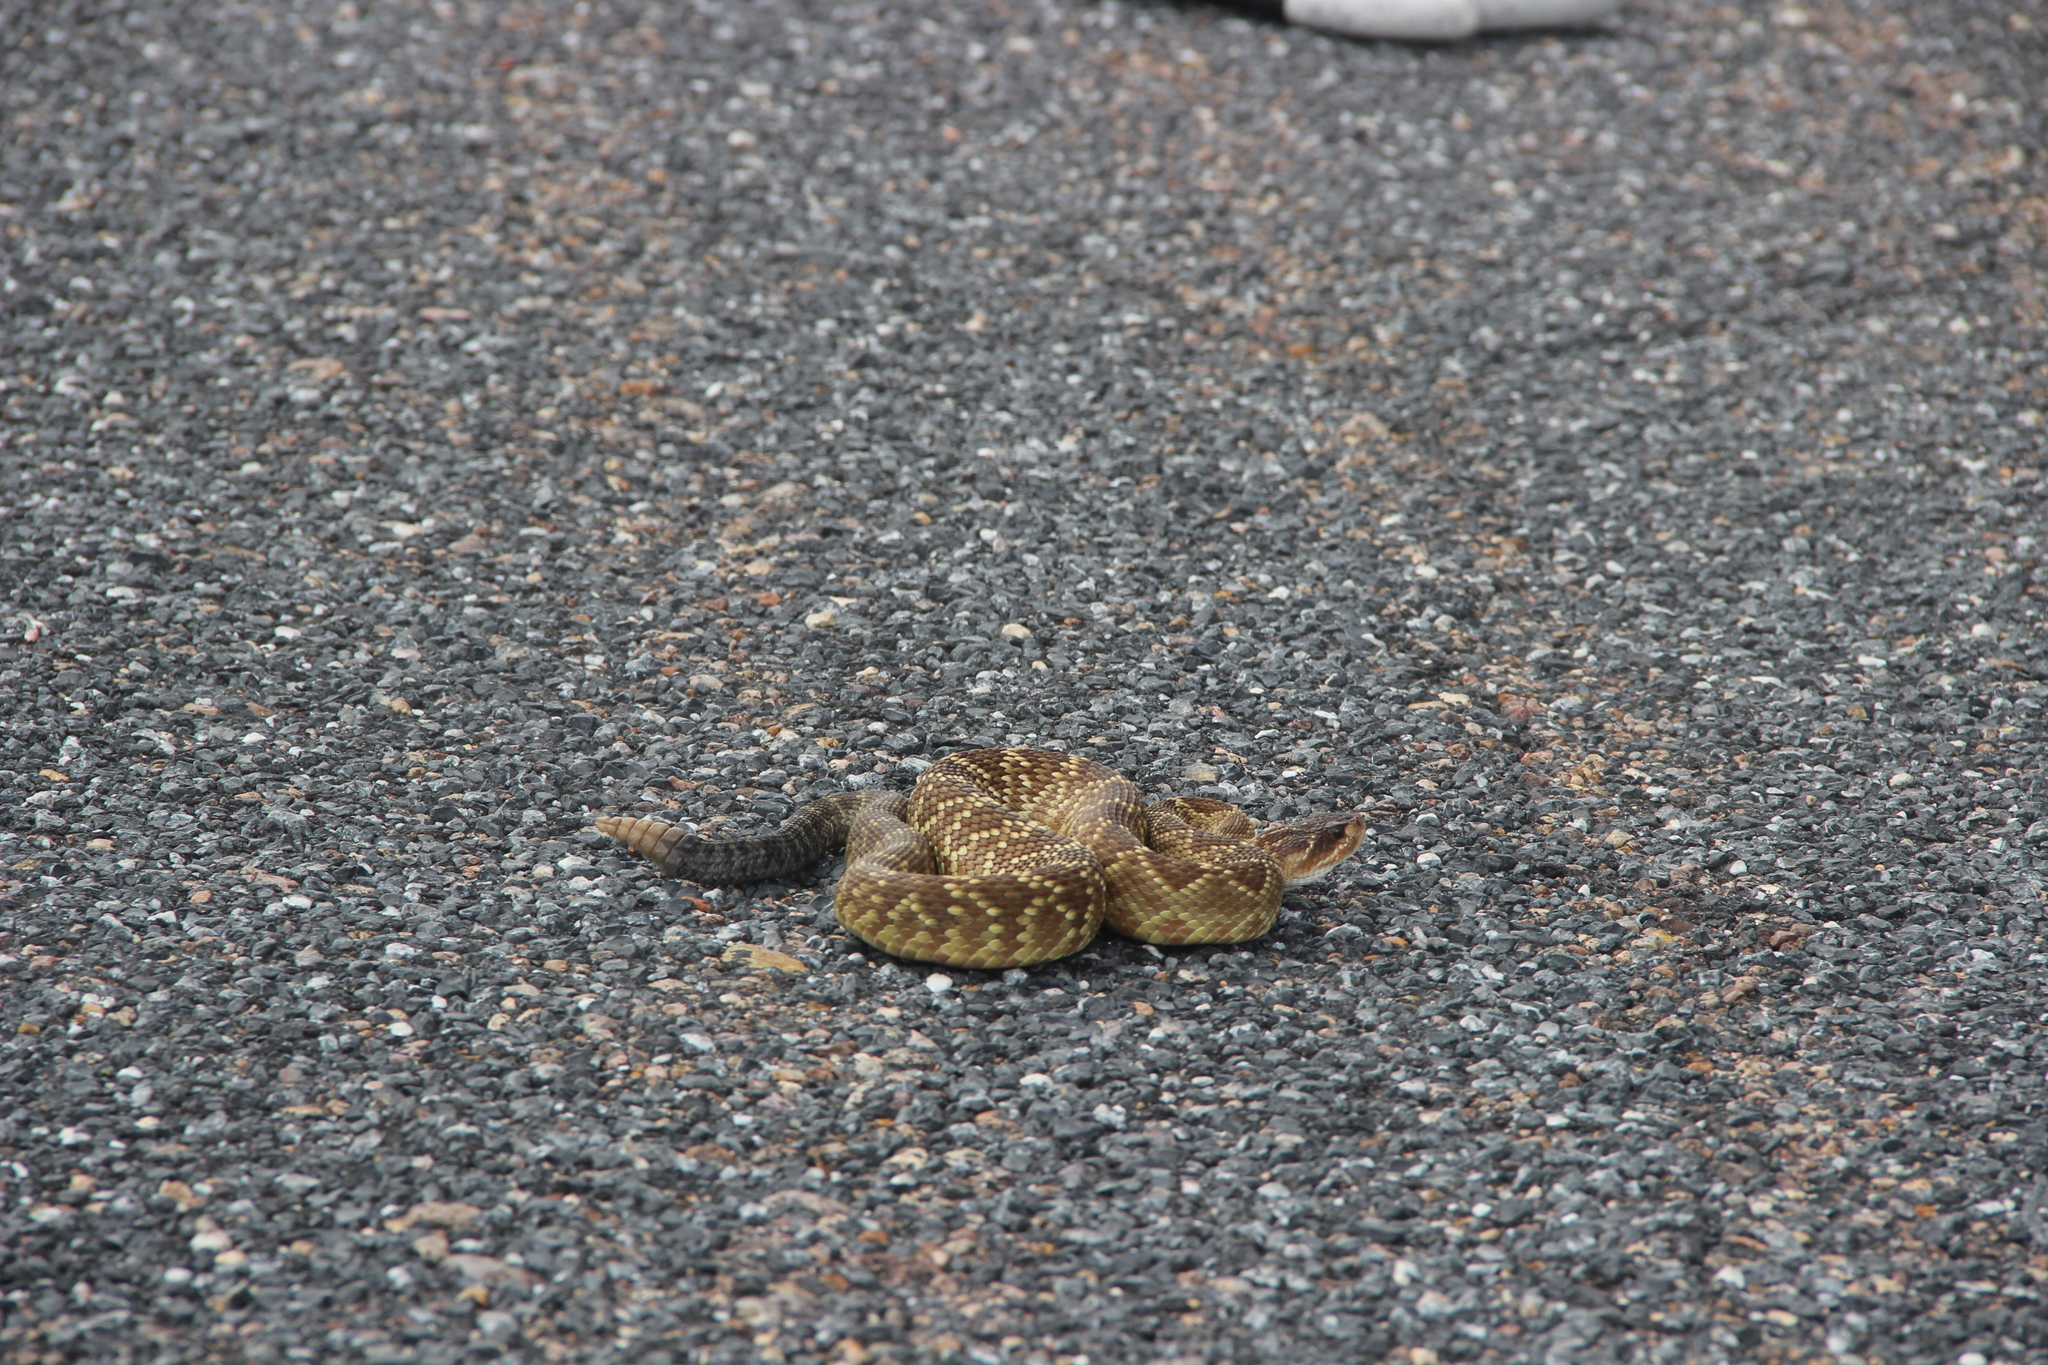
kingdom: Animalia
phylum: Chordata
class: Squamata
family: Viperidae
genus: Crotalus
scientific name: Crotalus molossus
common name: Black tailed rattlesnake
